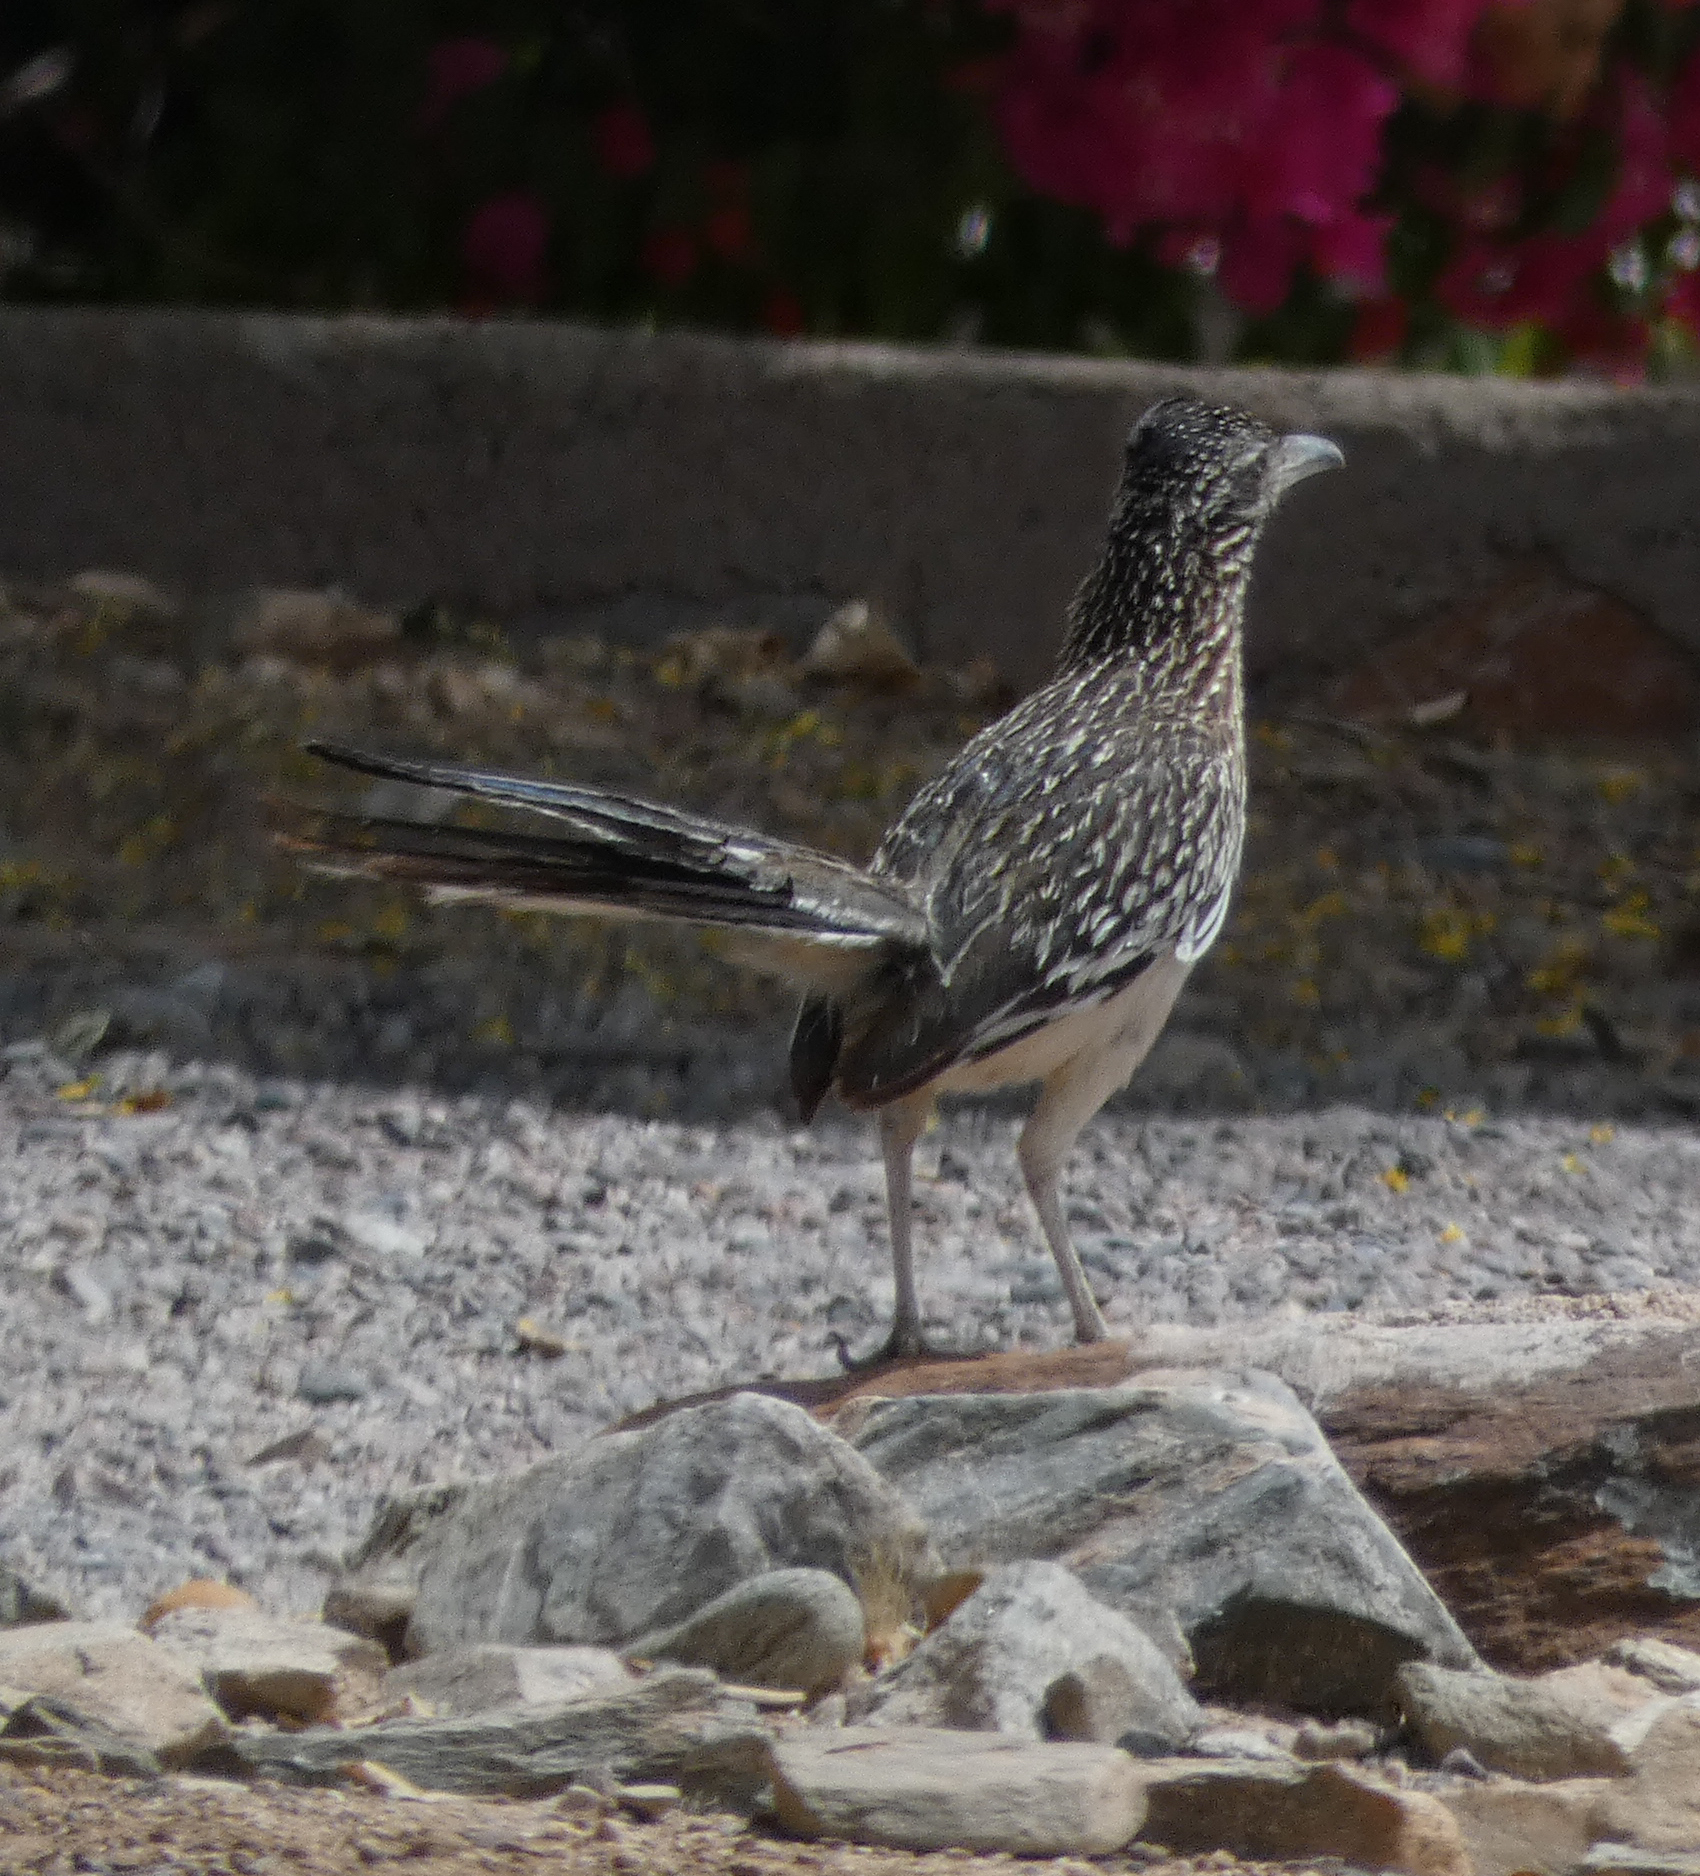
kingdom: Animalia
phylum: Chordata
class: Aves
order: Cuculiformes
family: Cuculidae
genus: Geococcyx
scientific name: Geococcyx californianus
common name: Greater roadrunner
